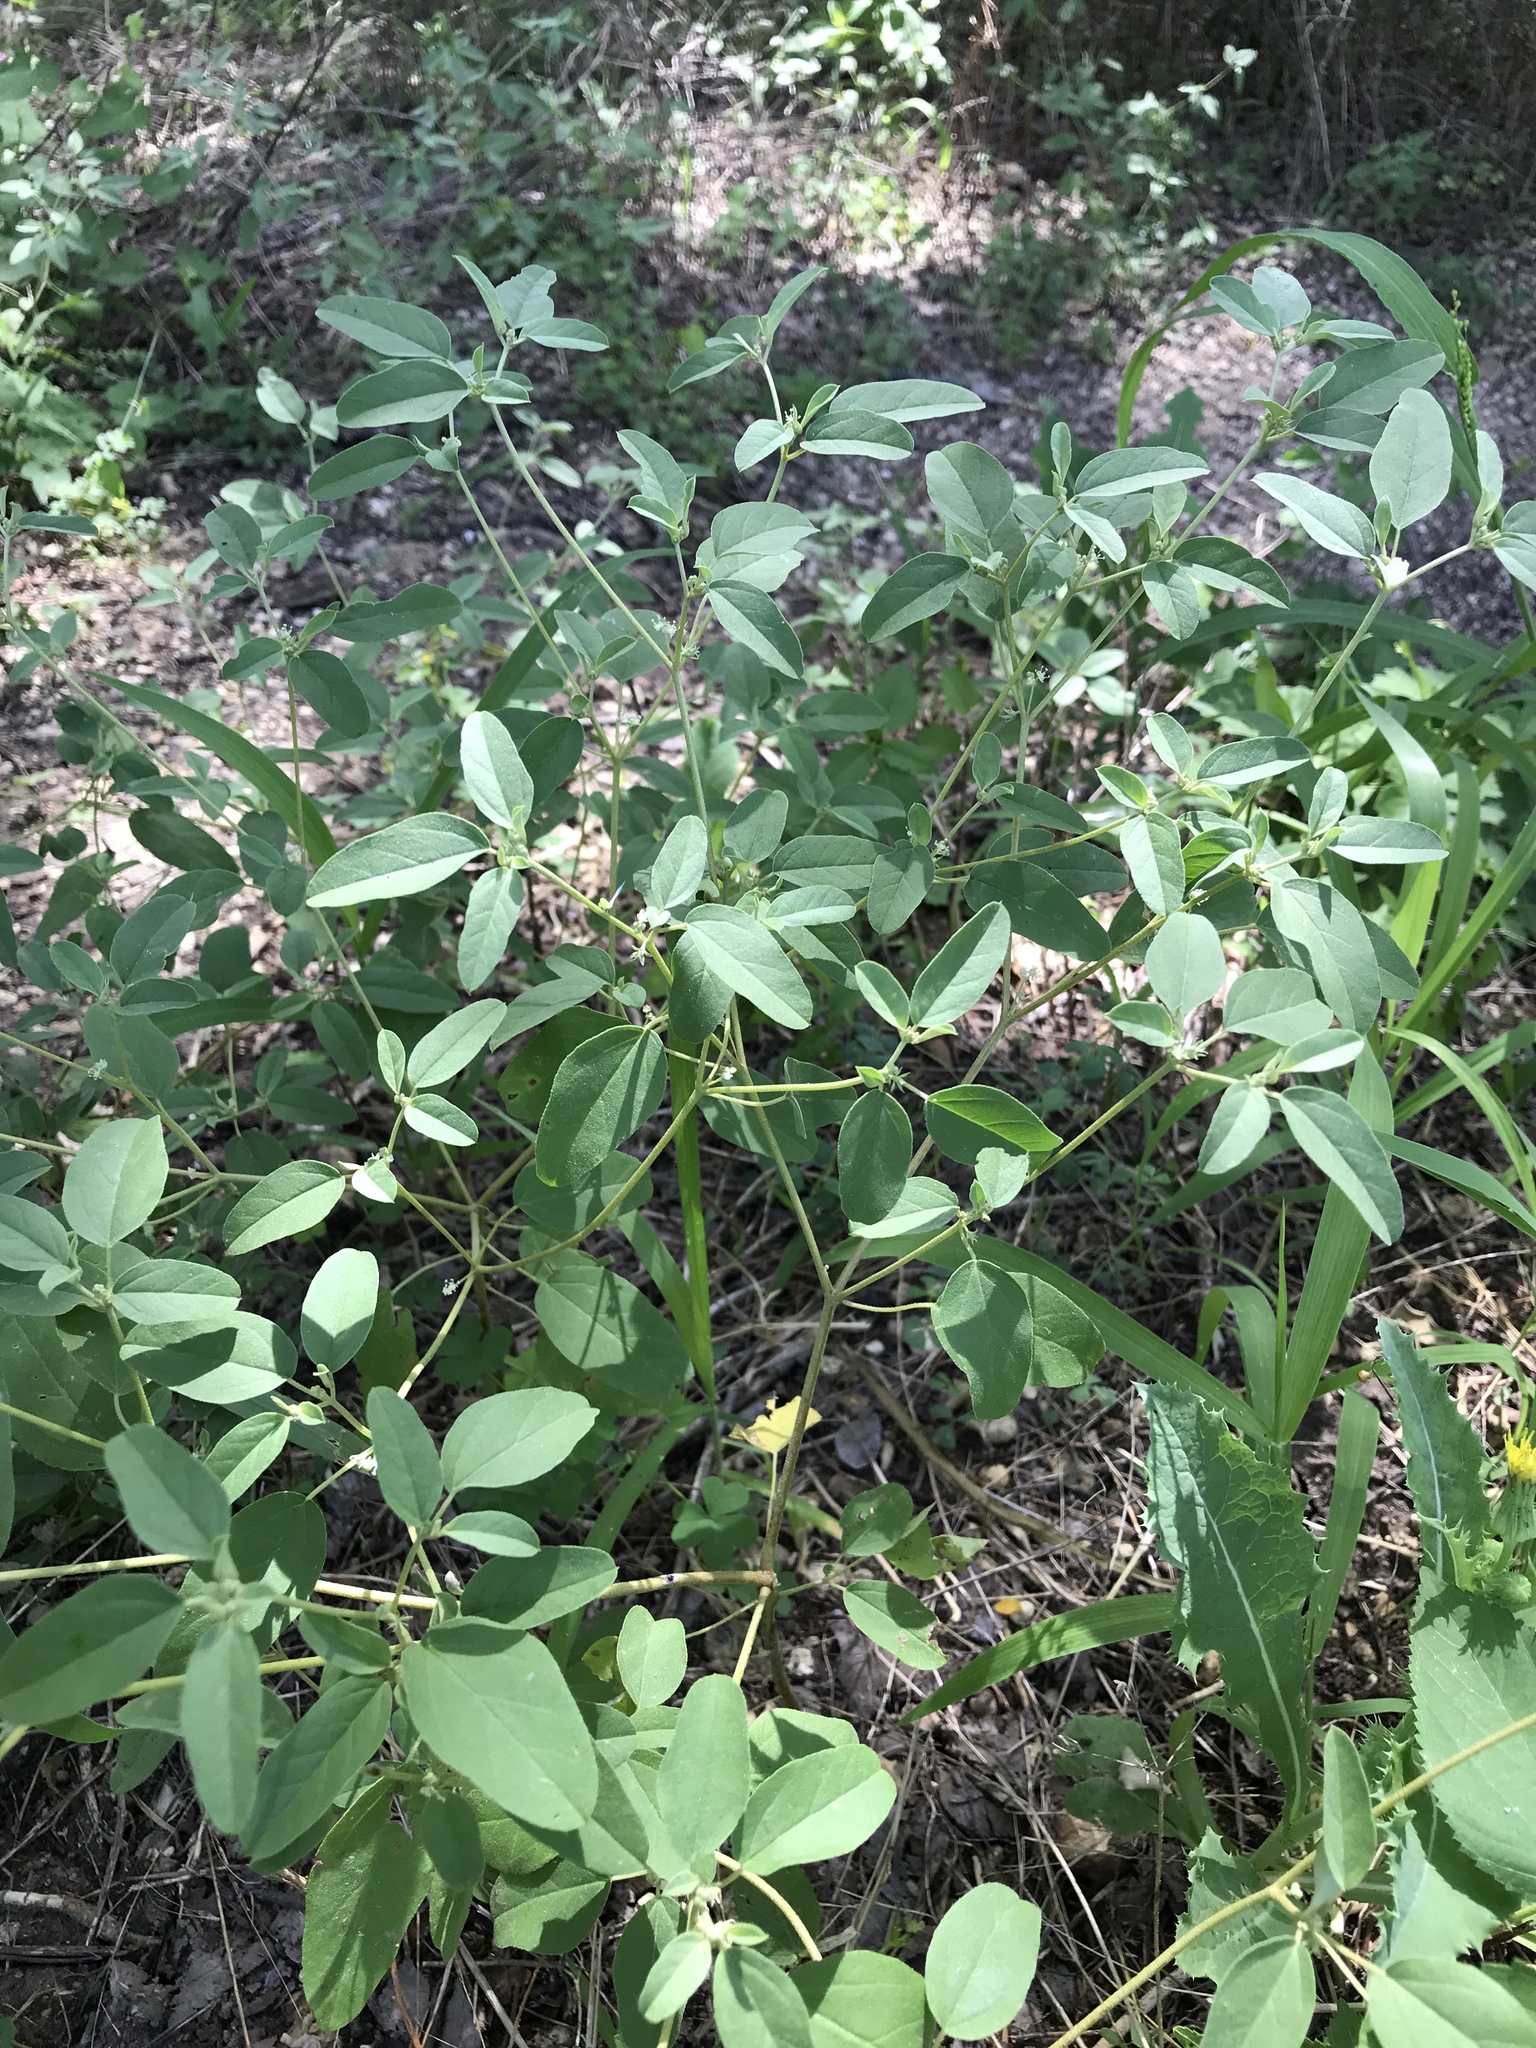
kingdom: Plantae
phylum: Tracheophyta
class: Magnoliopsida
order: Malpighiales
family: Euphorbiaceae
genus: Croton
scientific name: Croton monanthogynus
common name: One-seed croton
